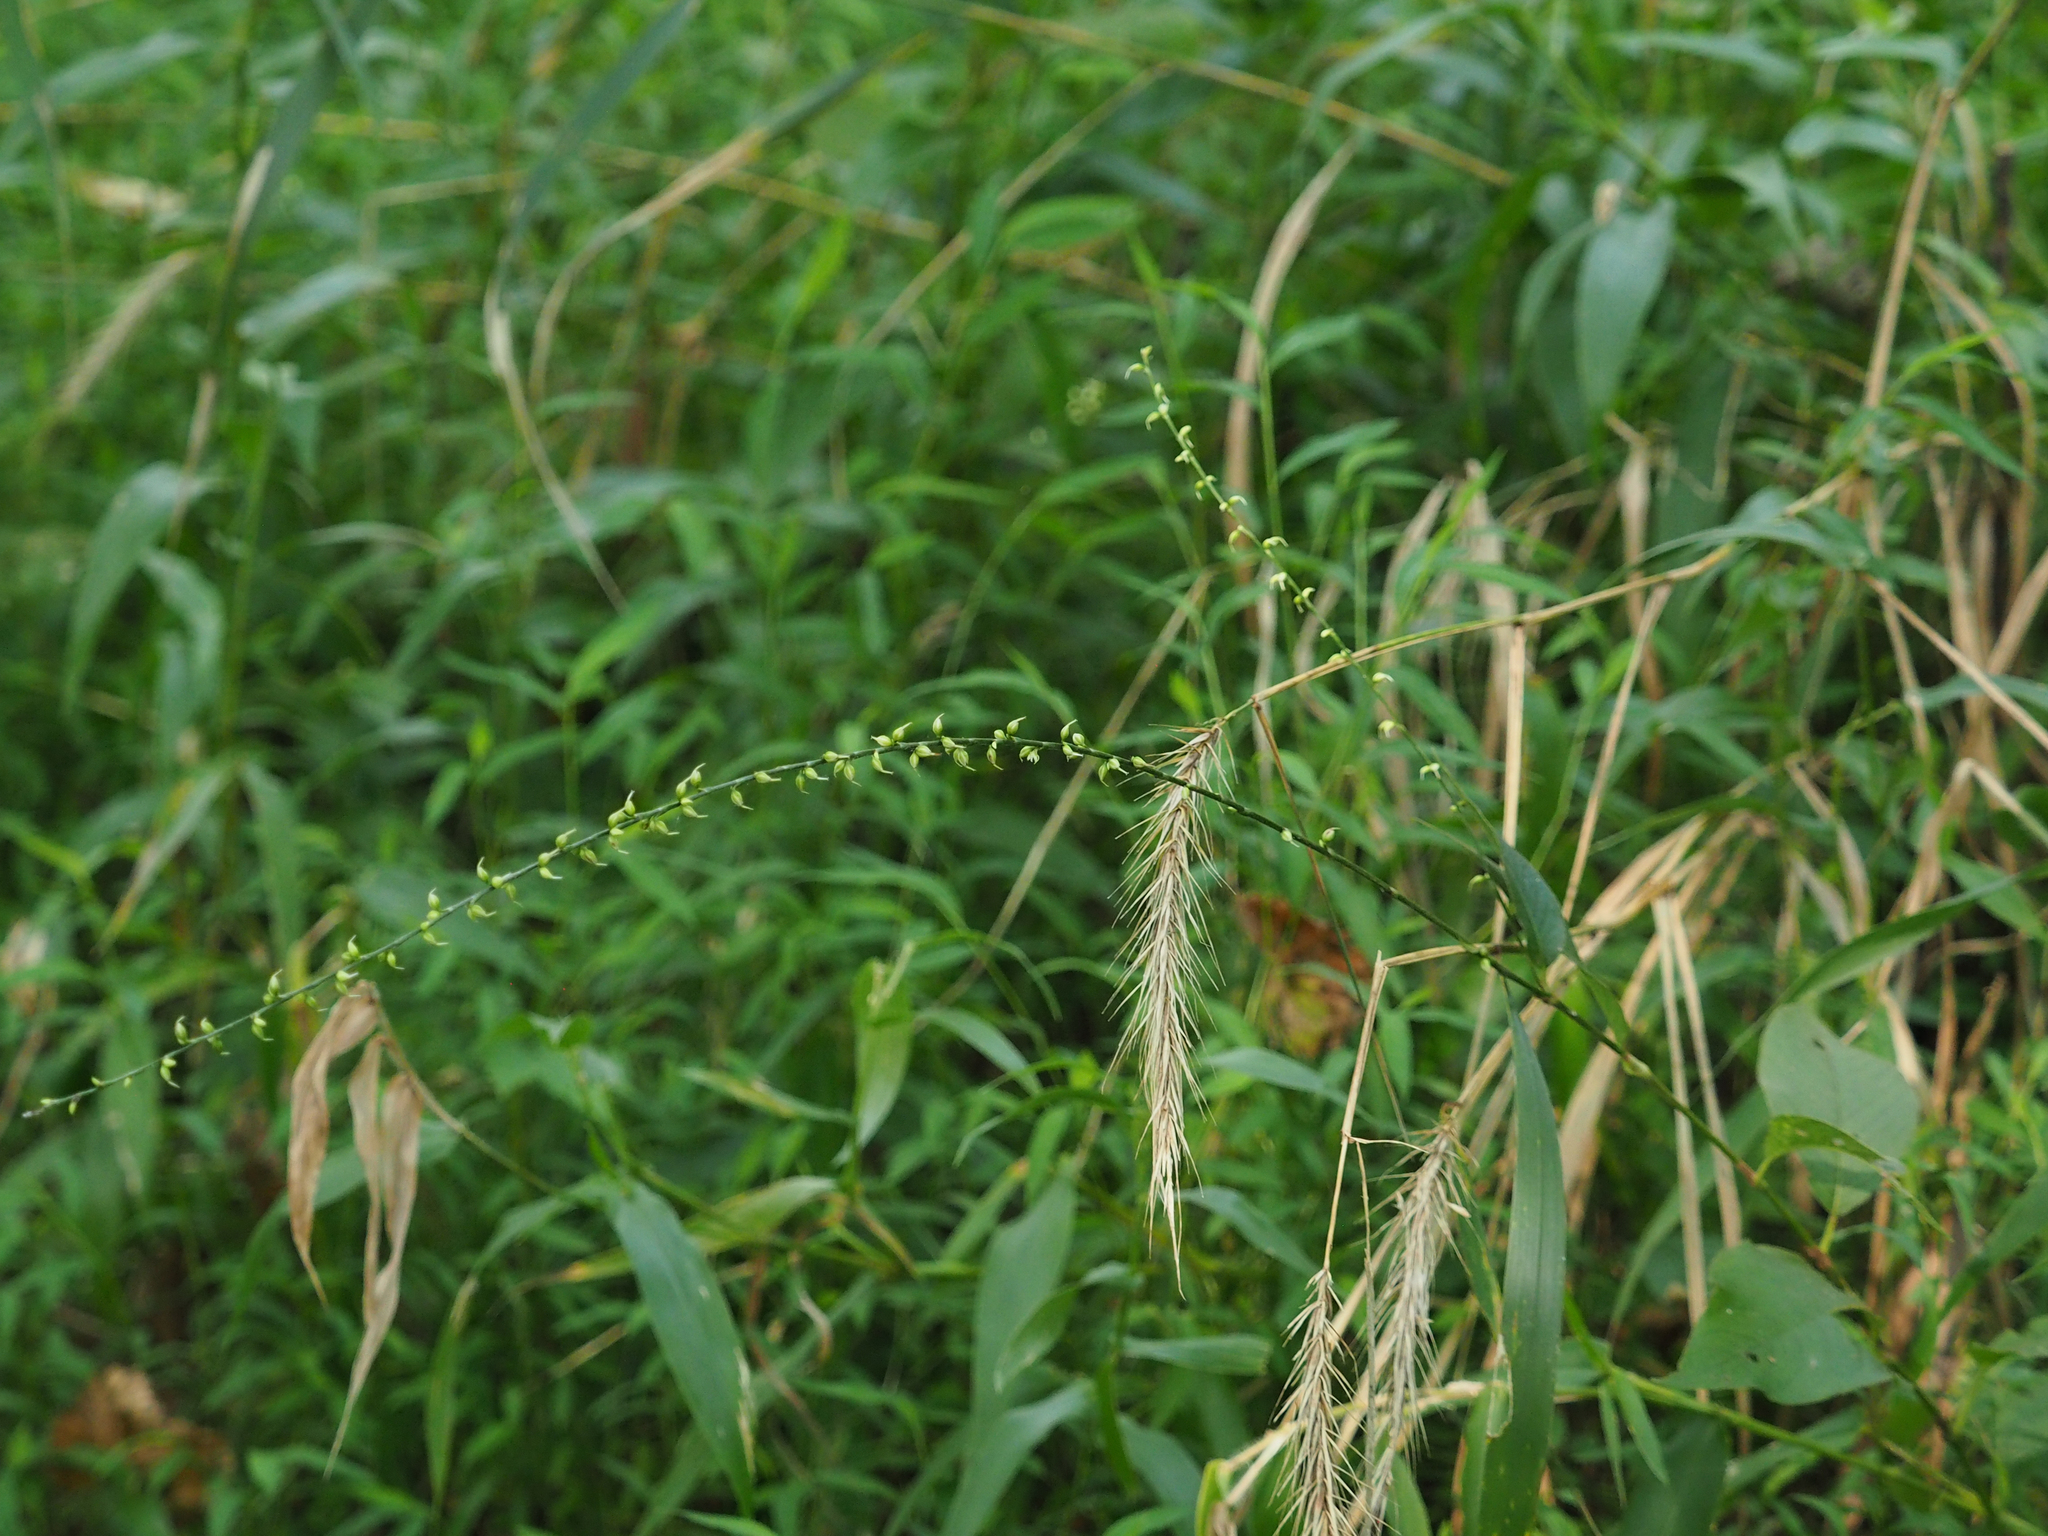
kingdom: Plantae
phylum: Tracheophyta
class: Magnoliopsida
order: Caryophyllales
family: Polygonaceae
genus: Persicaria
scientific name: Persicaria virginiana
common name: Jumpseed
